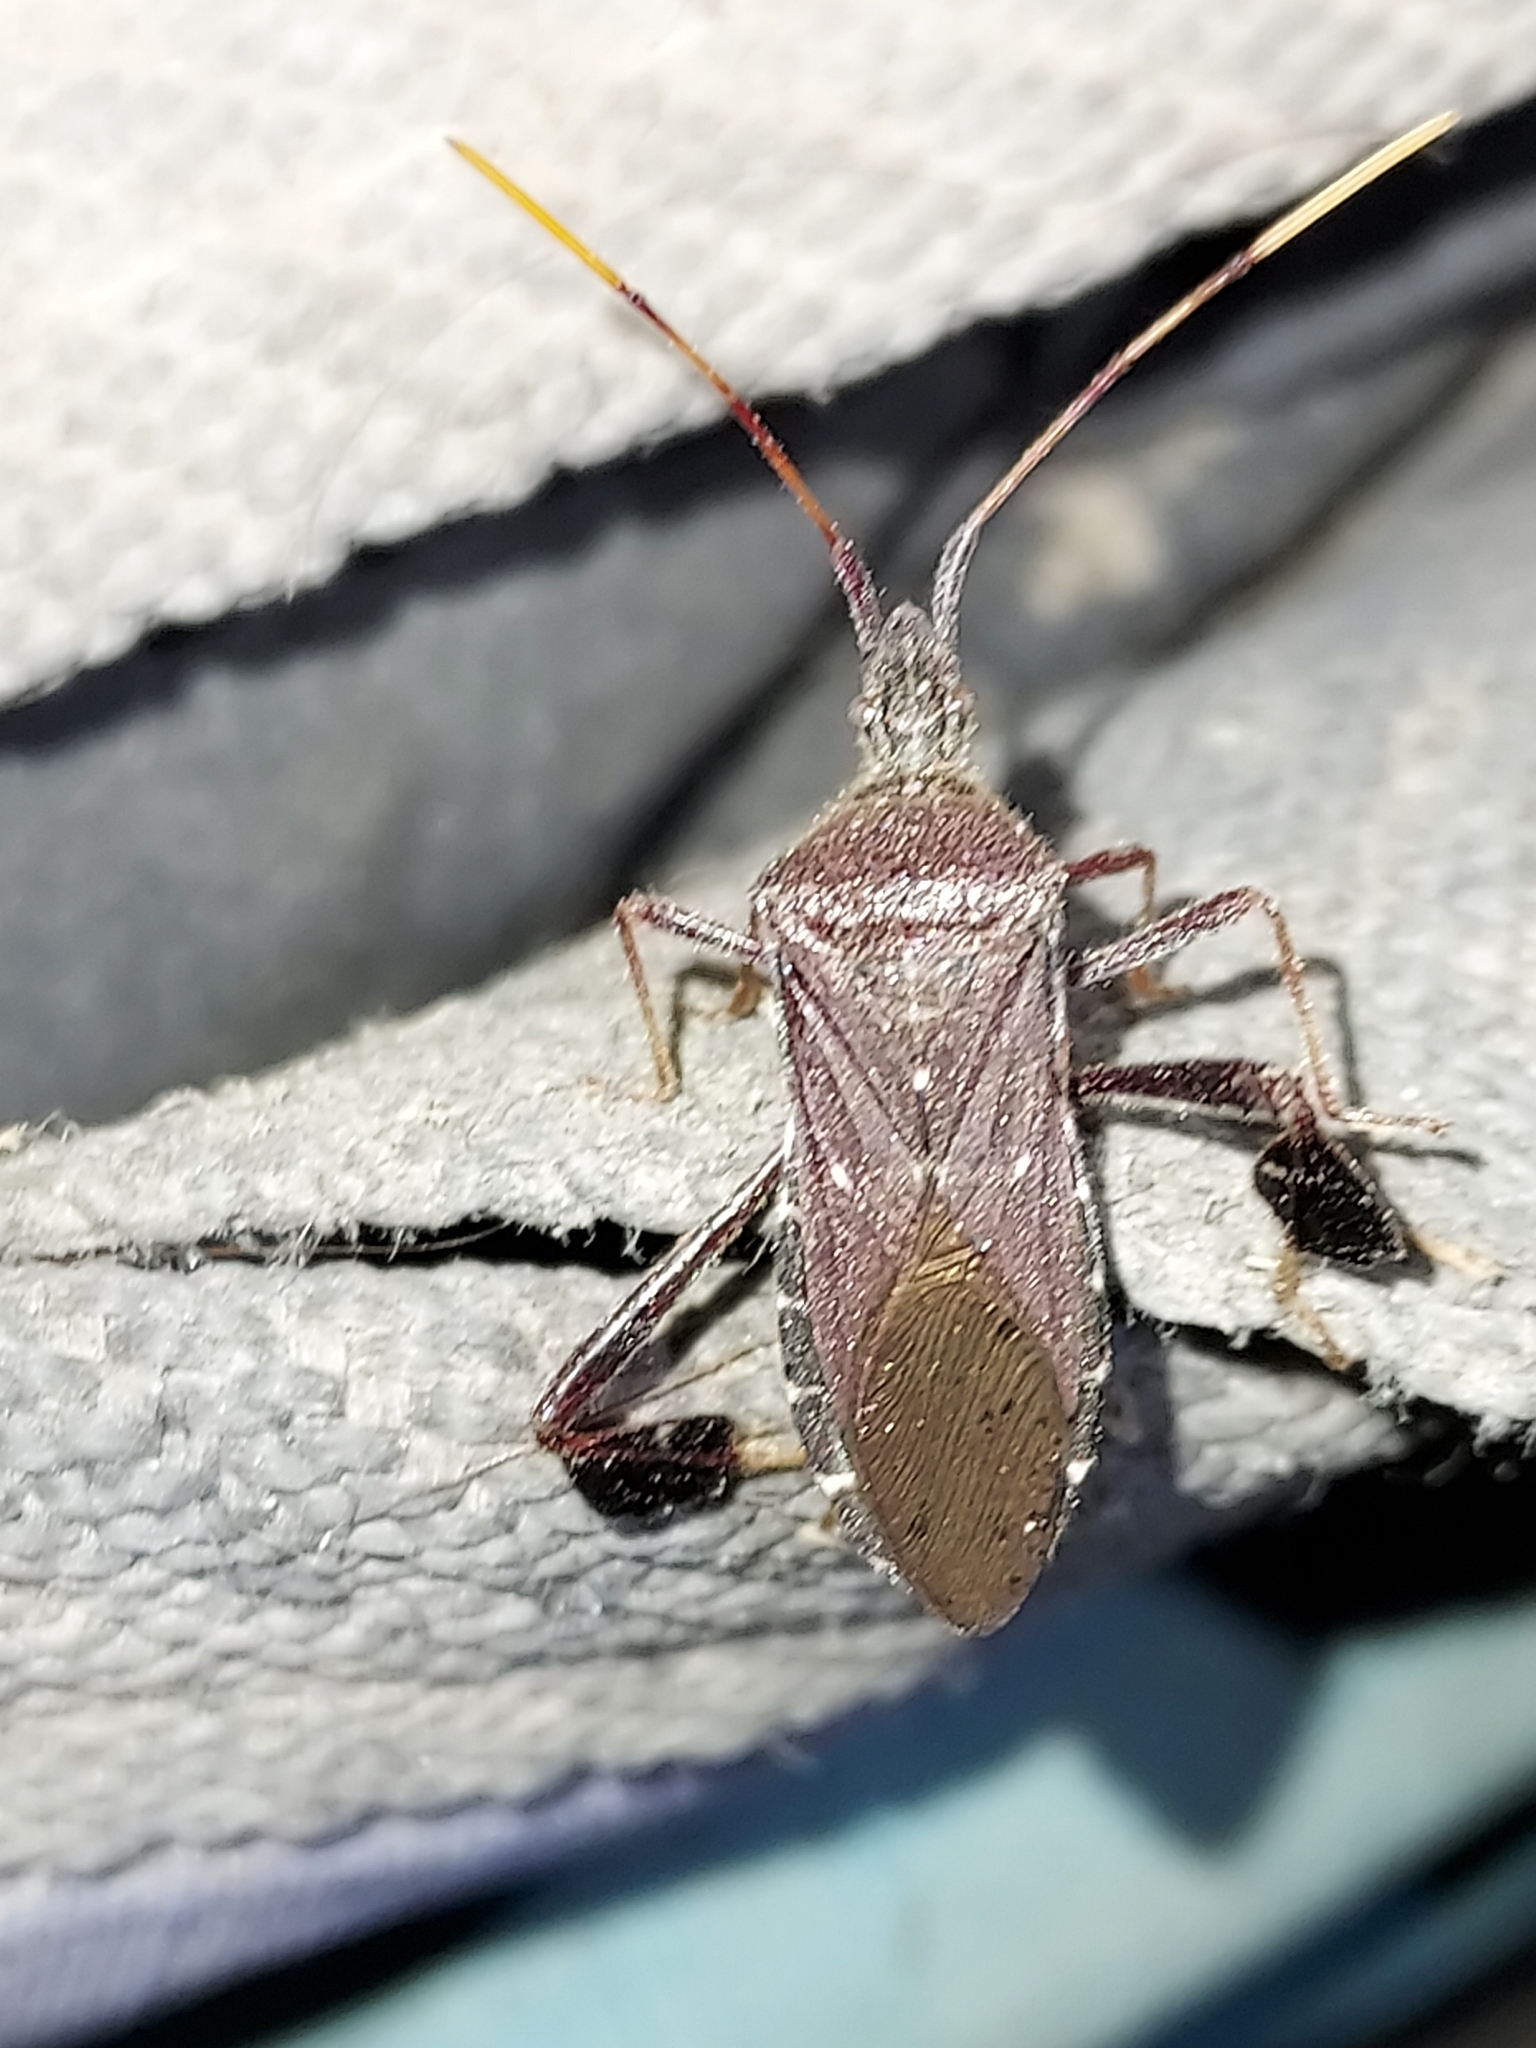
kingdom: Animalia
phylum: Arthropoda
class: Insecta
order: Hemiptera
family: Coreidae
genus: Leptoglossus
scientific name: Leptoglossus oppositus
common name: Northern leaf-footed bug
